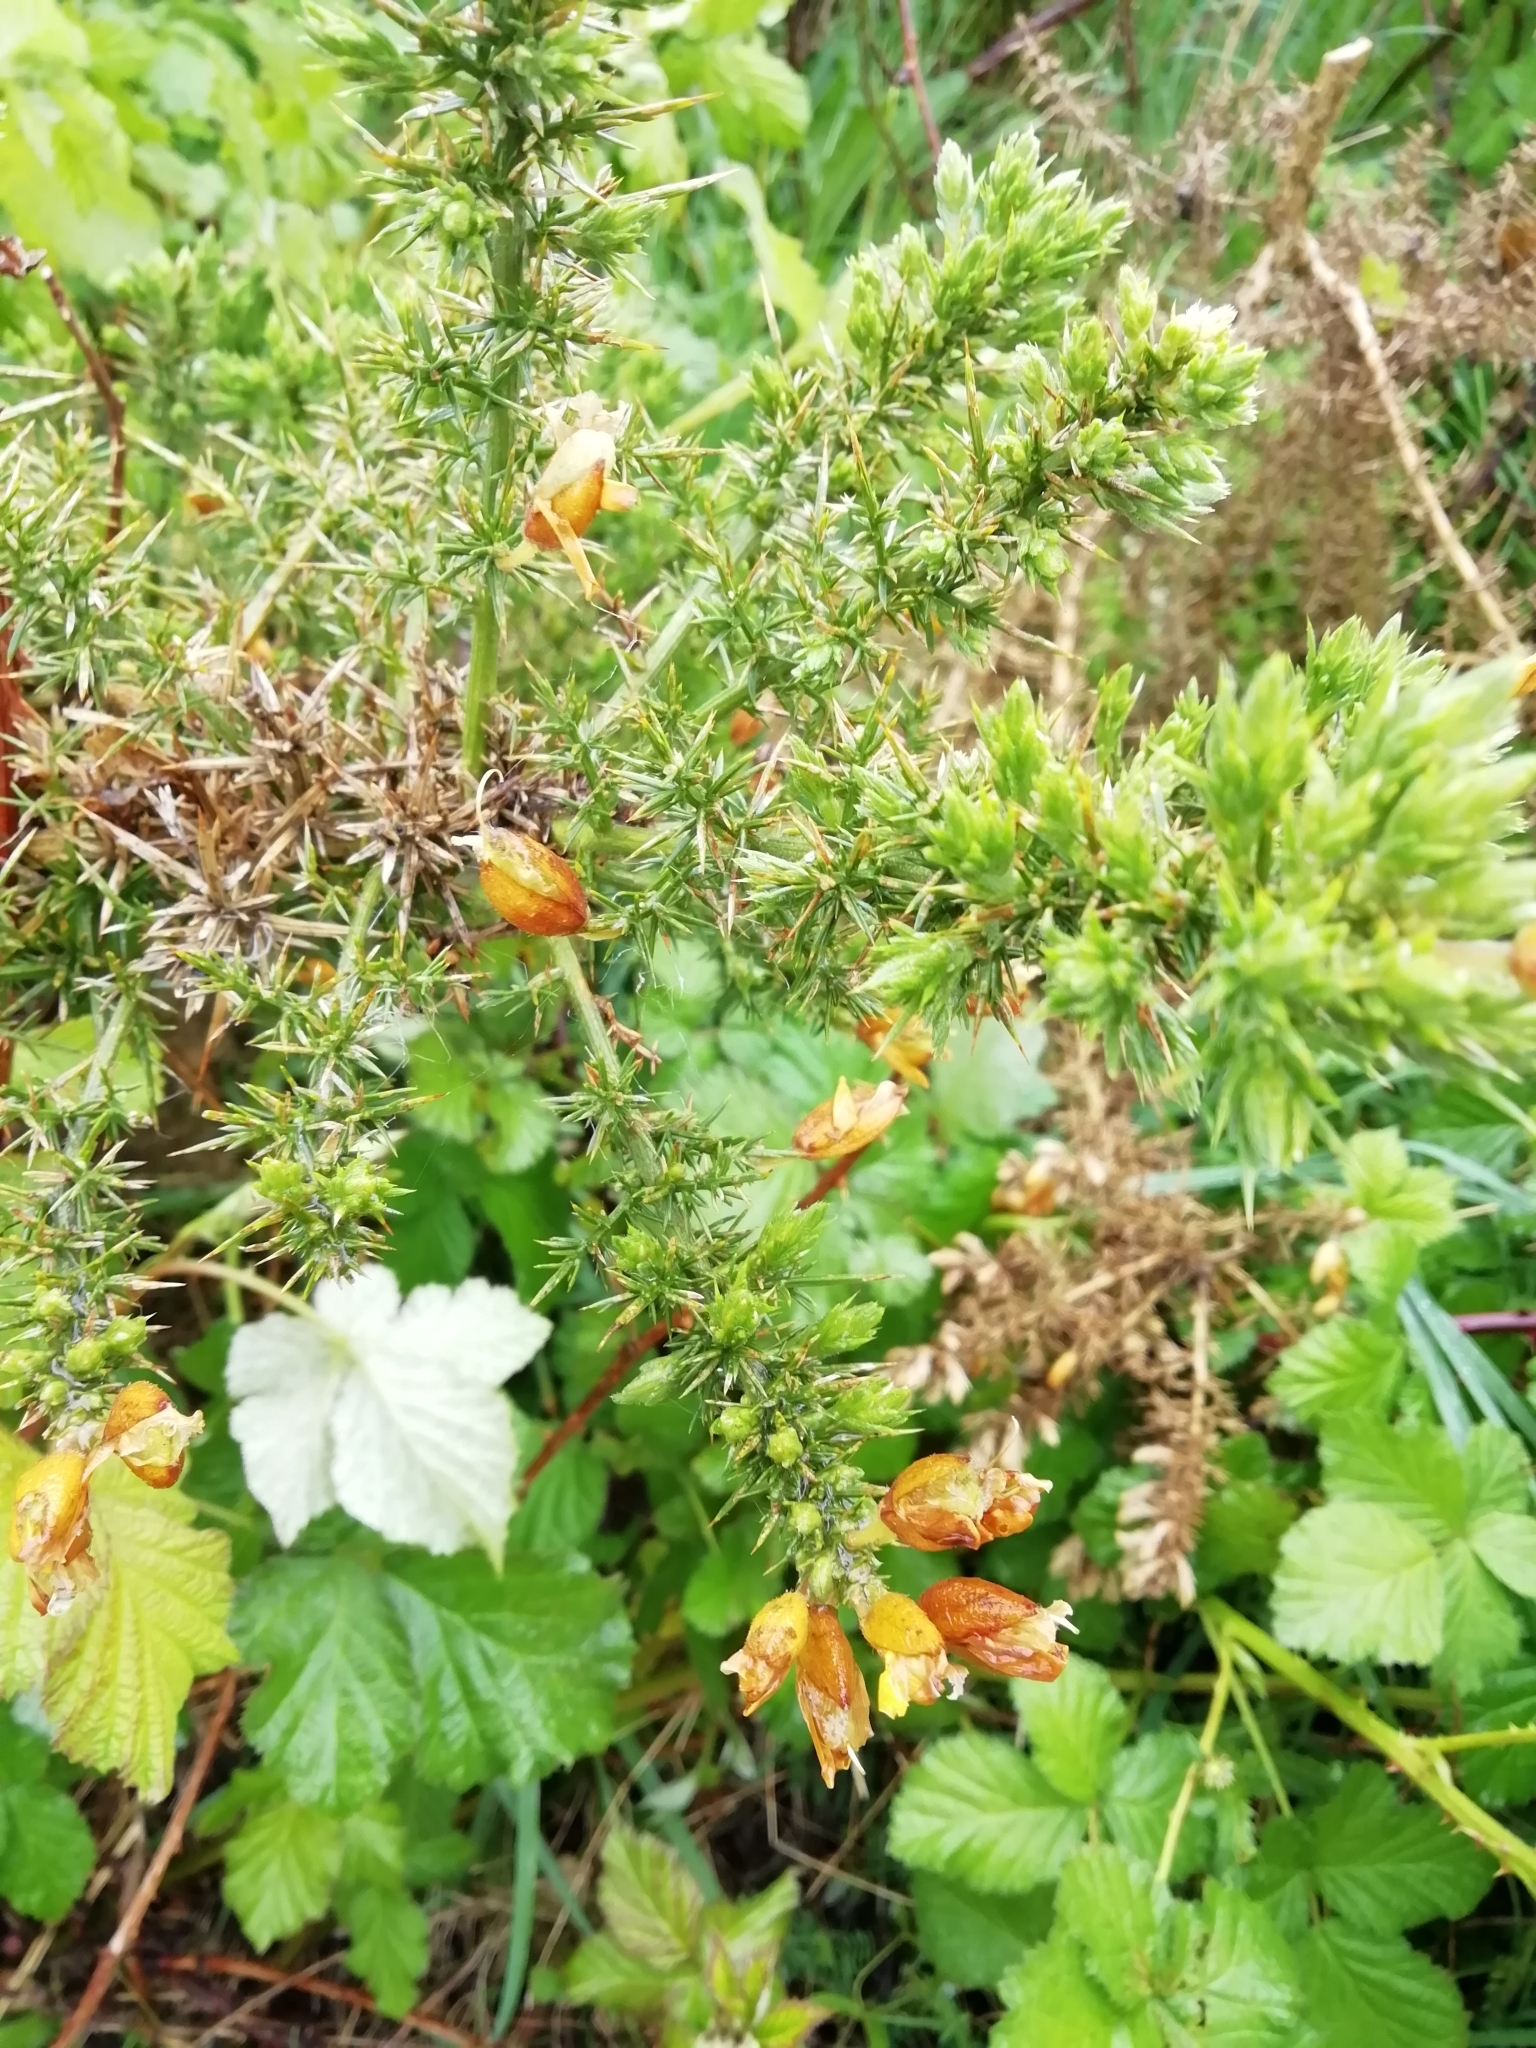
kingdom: Plantae
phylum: Tracheophyta
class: Magnoliopsida
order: Fabales
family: Fabaceae
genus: Ulex
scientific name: Ulex europaeus
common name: Common gorse
